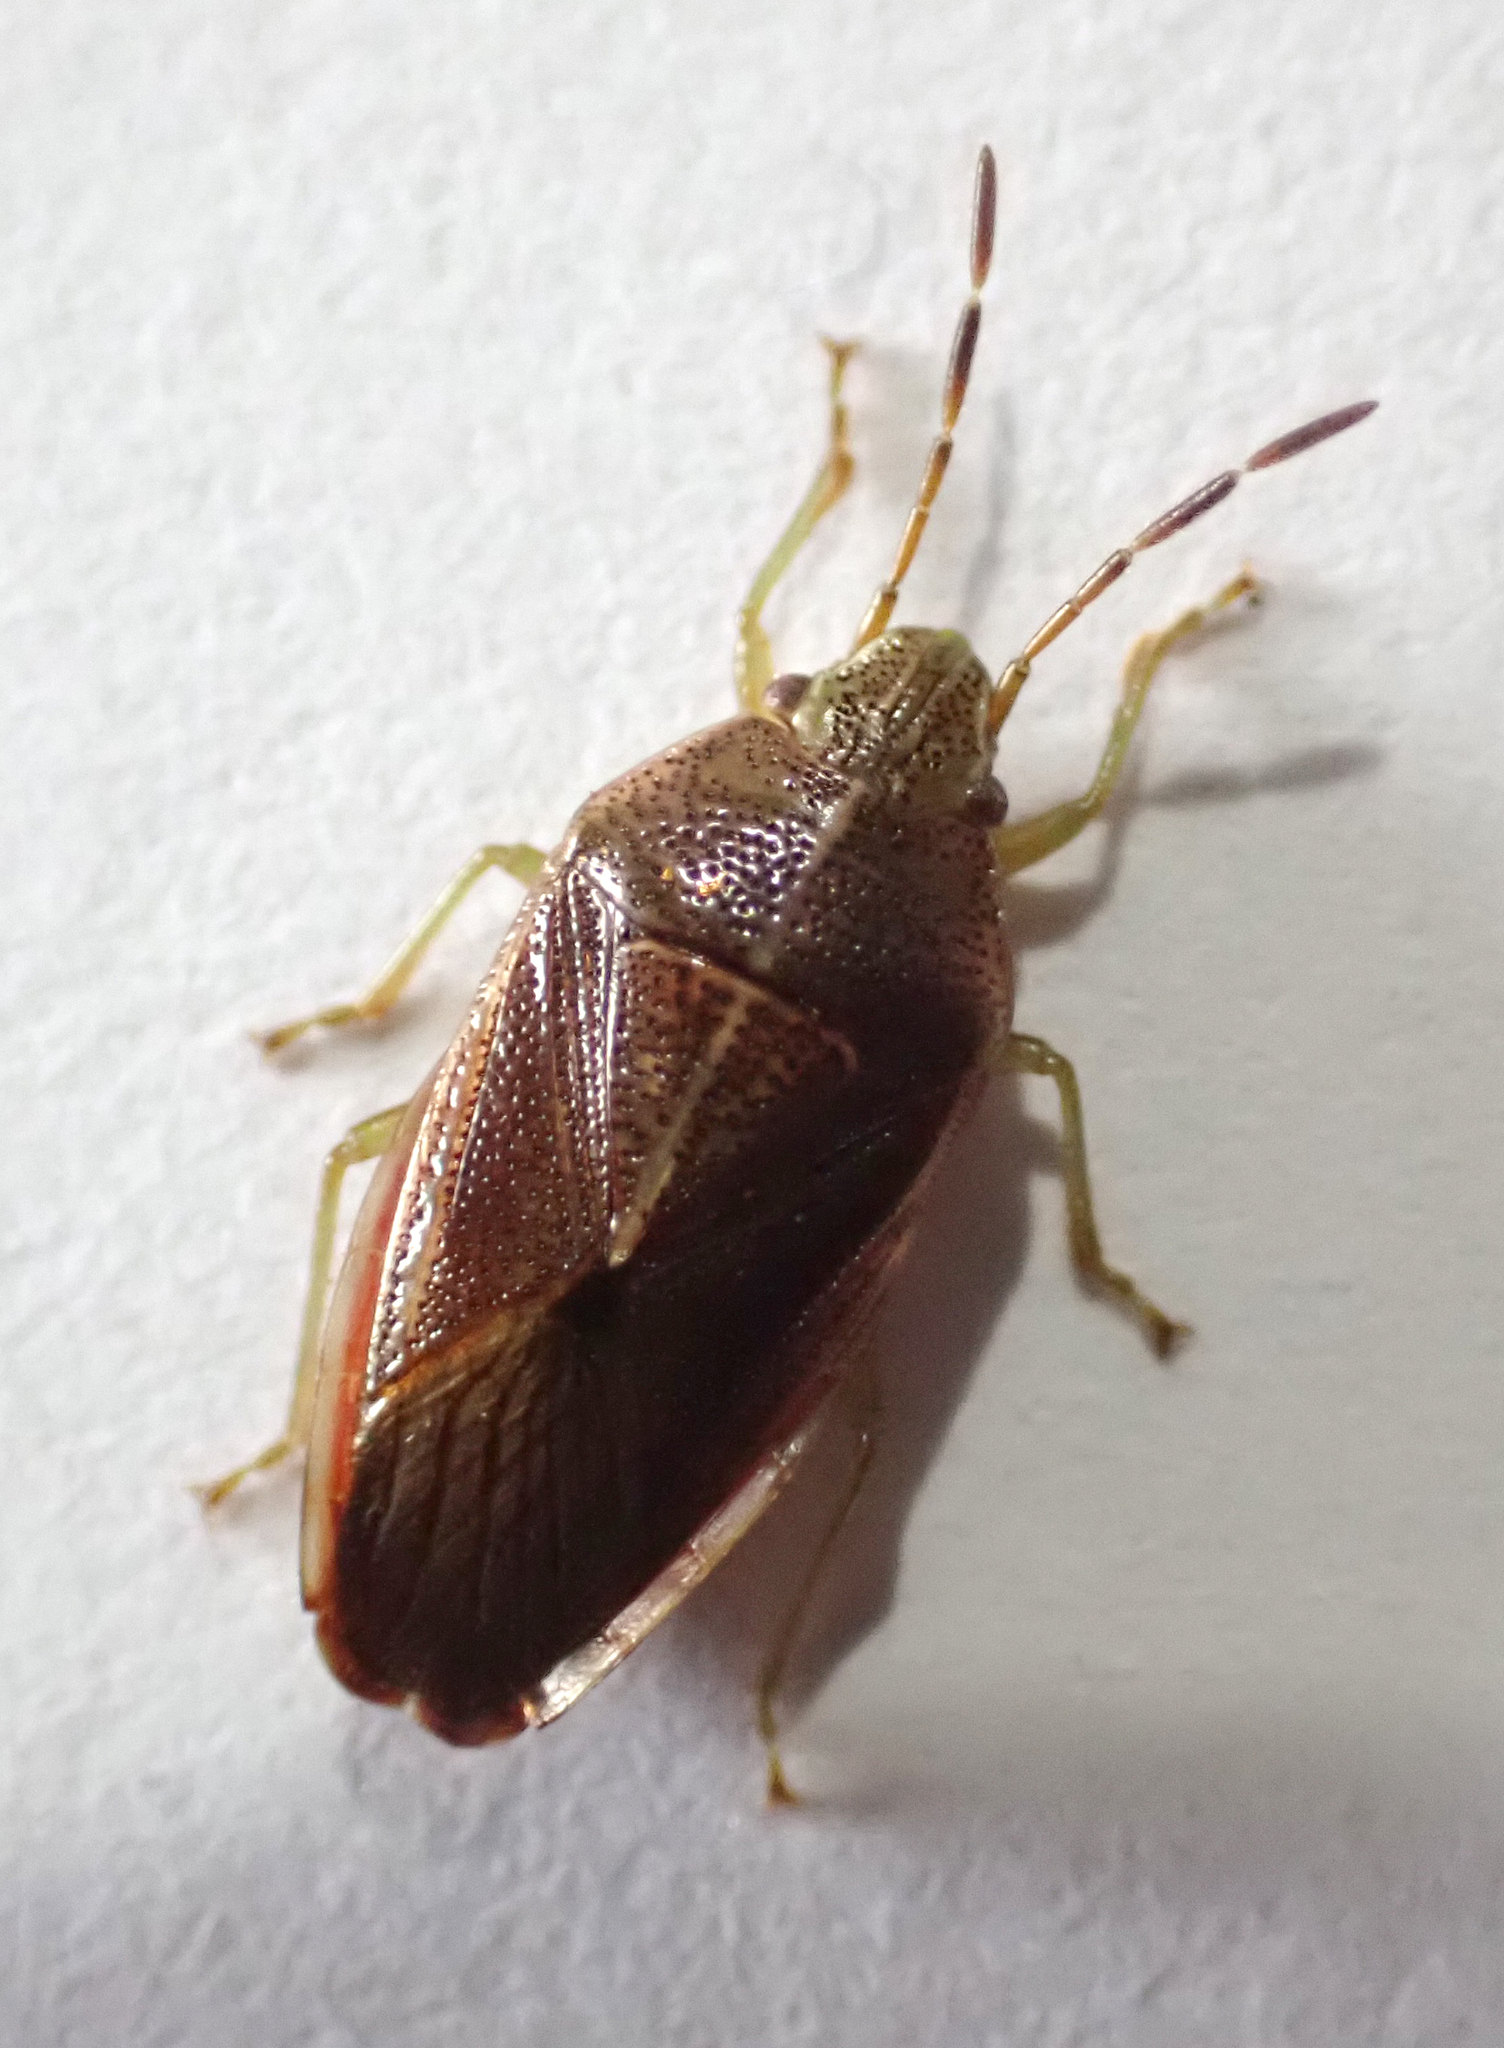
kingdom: Animalia
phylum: Arthropoda
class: Insecta
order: Hemiptera
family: Acanthosomatidae
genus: Rhopalimorpha
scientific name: Rhopalimorpha obscura
